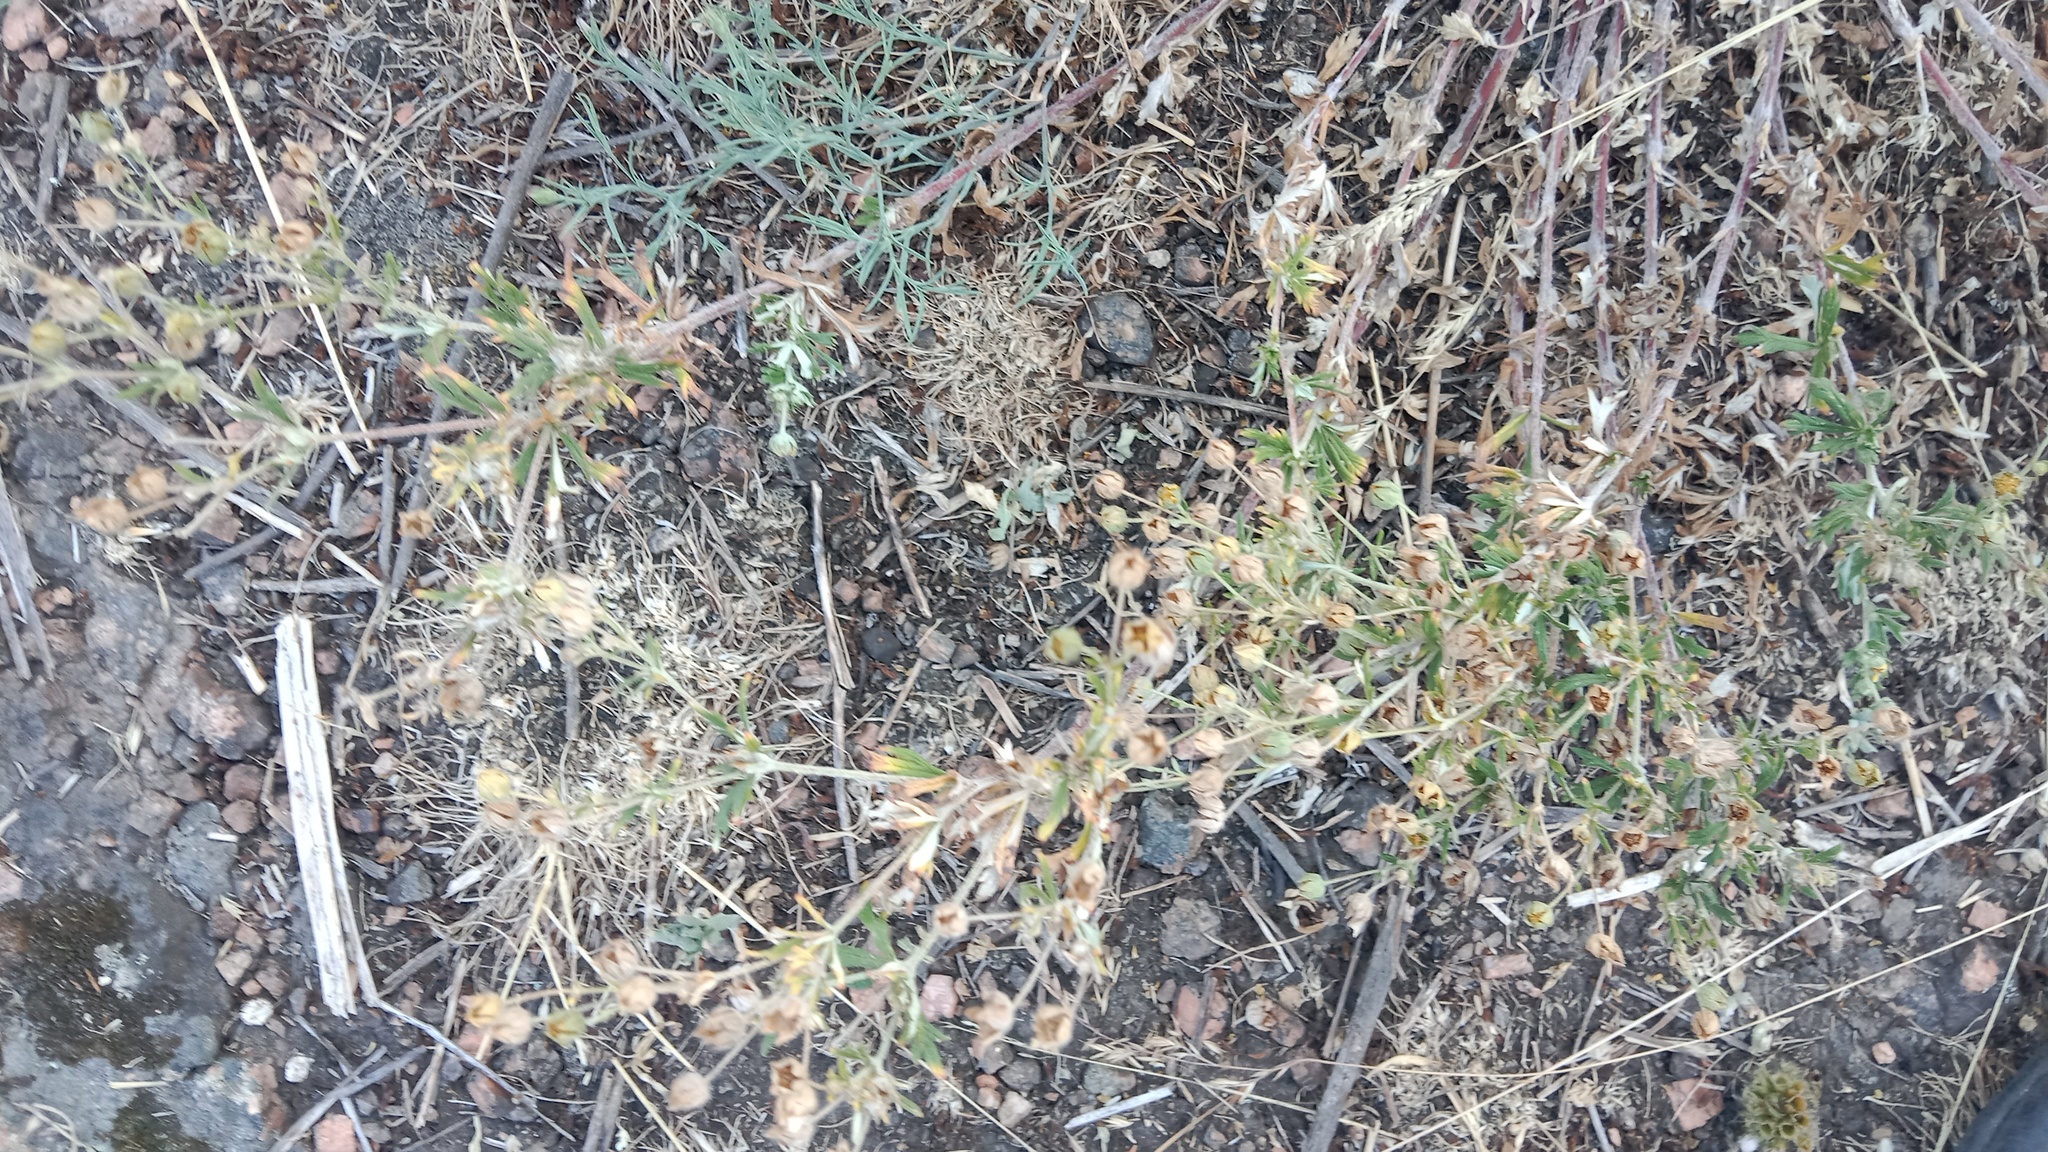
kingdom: Plantae
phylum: Tracheophyta
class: Magnoliopsida
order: Rosales
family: Rosaceae
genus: Potentilla
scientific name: Potentilla argentea
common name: Hoary cinquefoil
